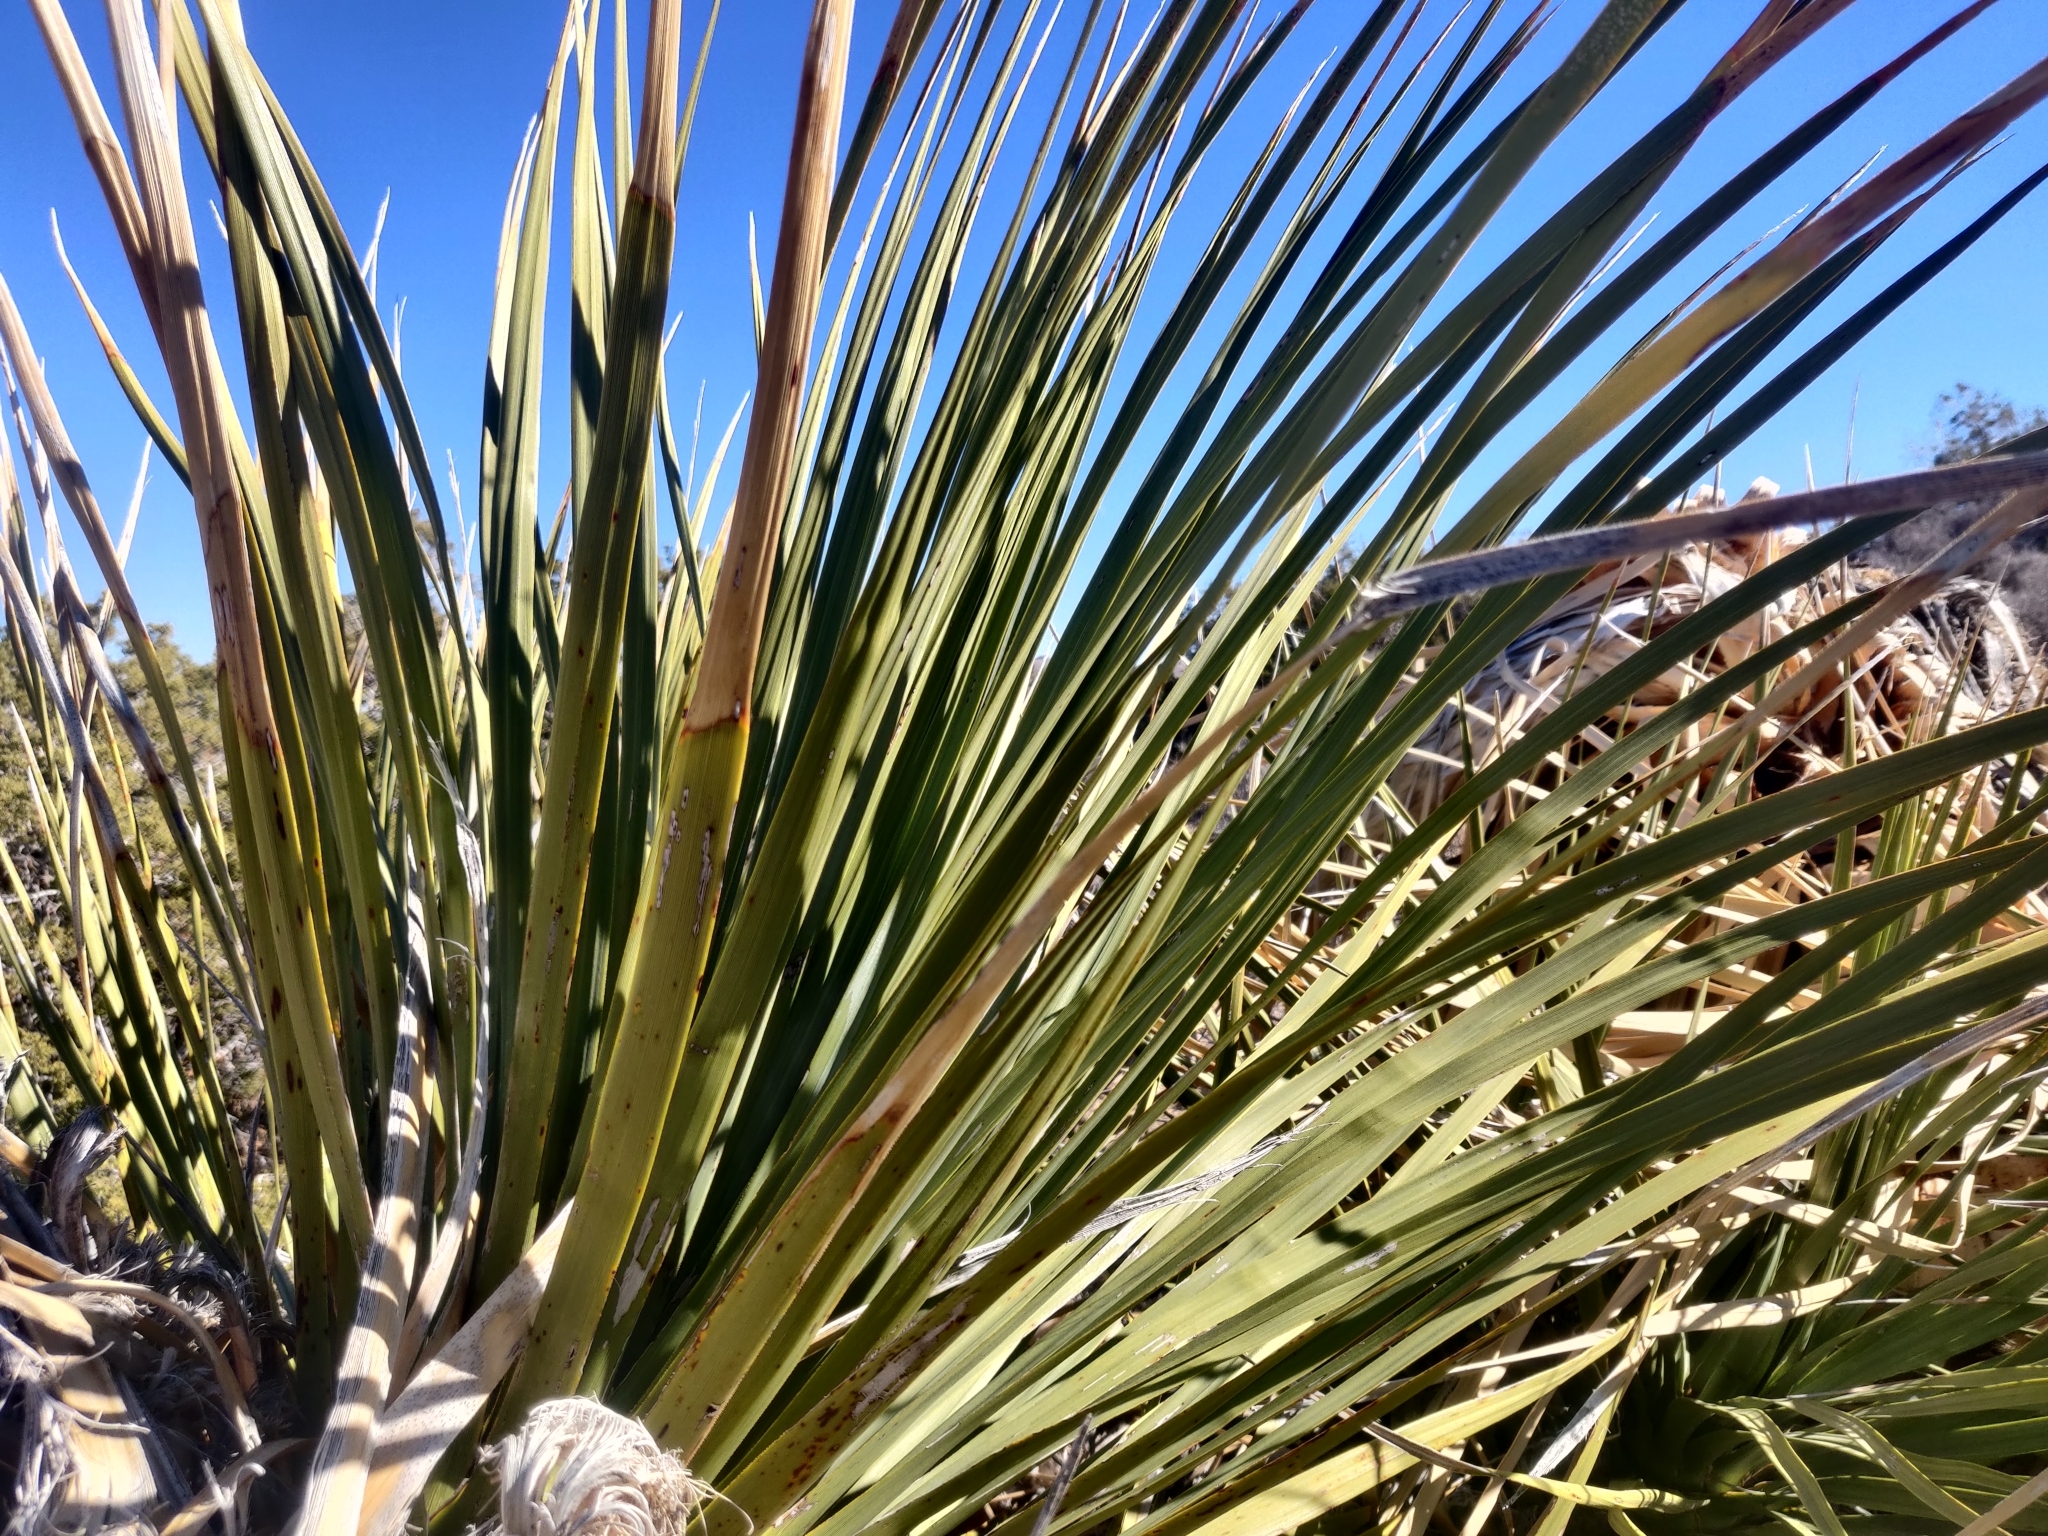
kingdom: Plantae
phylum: Tracheophyta
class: Liliopsida
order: Asparagales
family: Asparagaceae
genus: Nolina
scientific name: Nolina parryi
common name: Parry nolina
